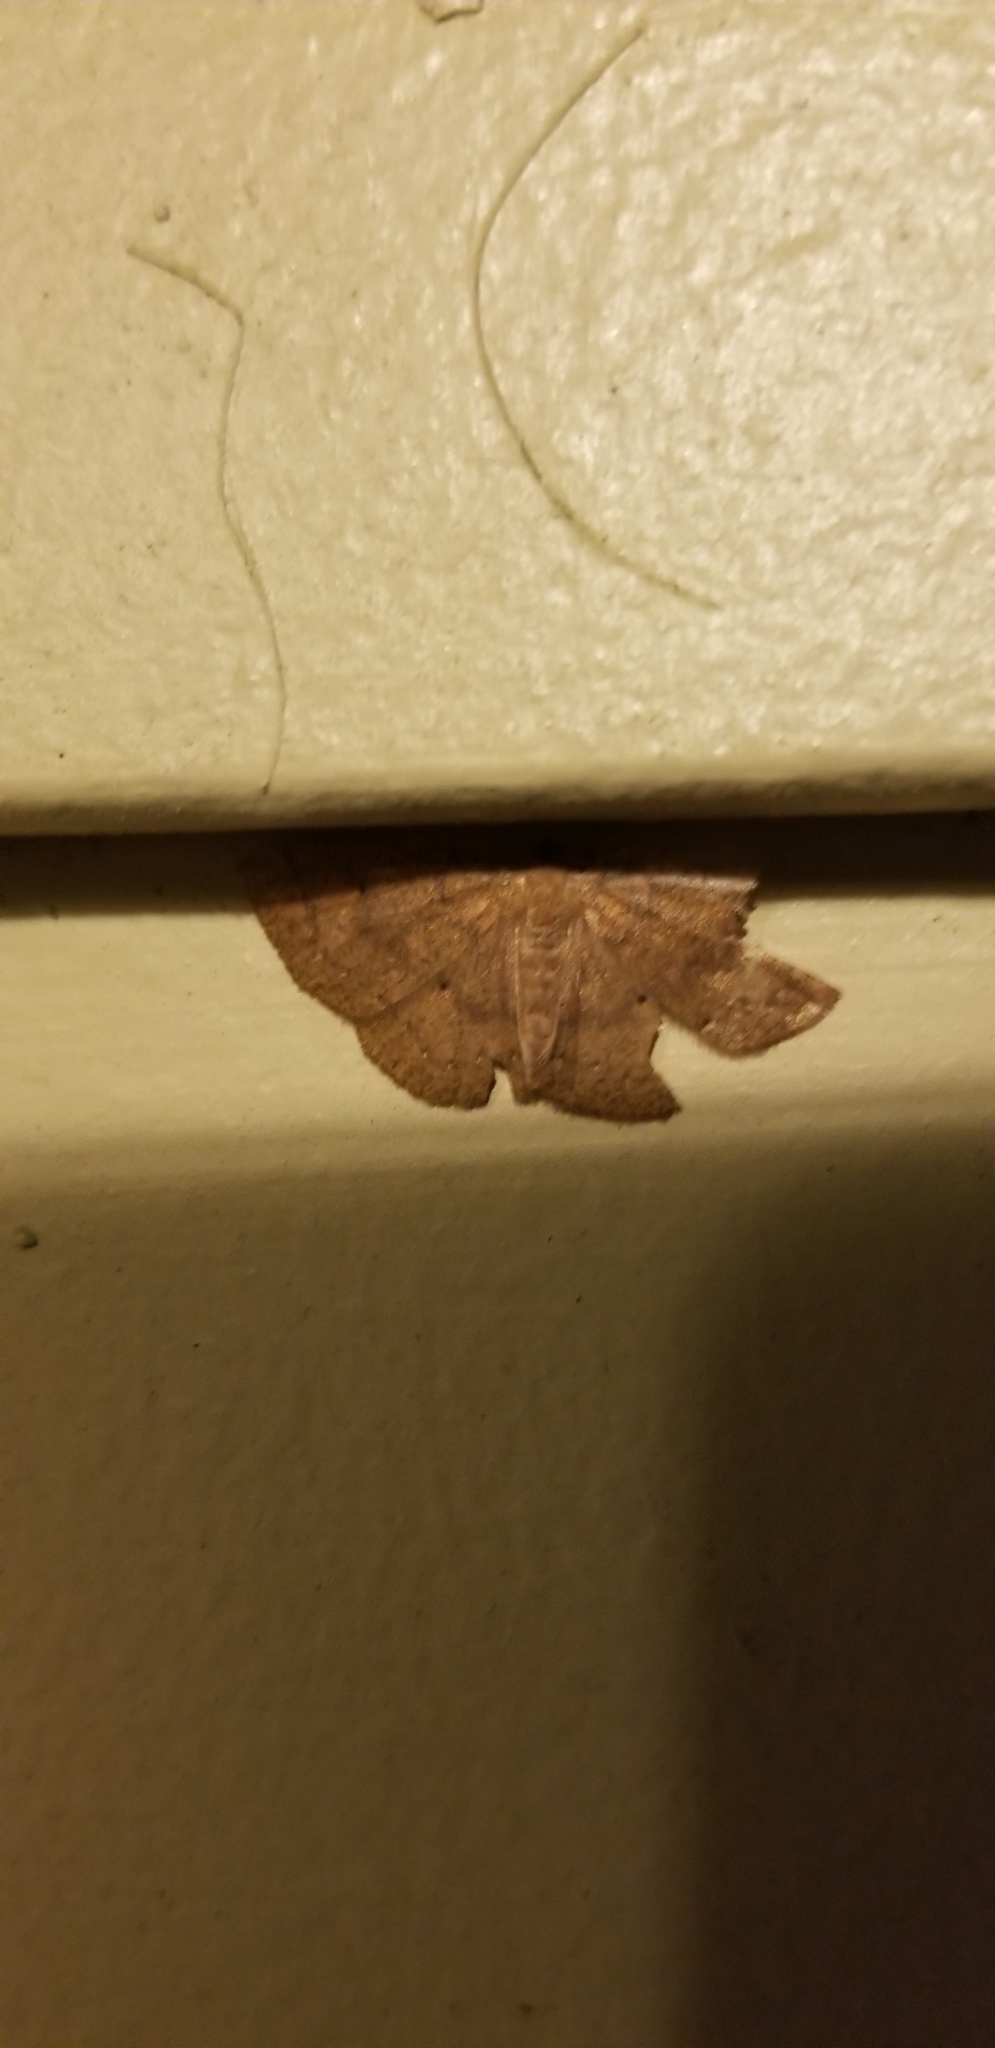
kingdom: Animalia
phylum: Arthropoda
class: Insecta
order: Lepidoptera
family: Geometridae
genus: Ilexia
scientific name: Ilexia intractata
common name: Black-dotted ruddy moth
